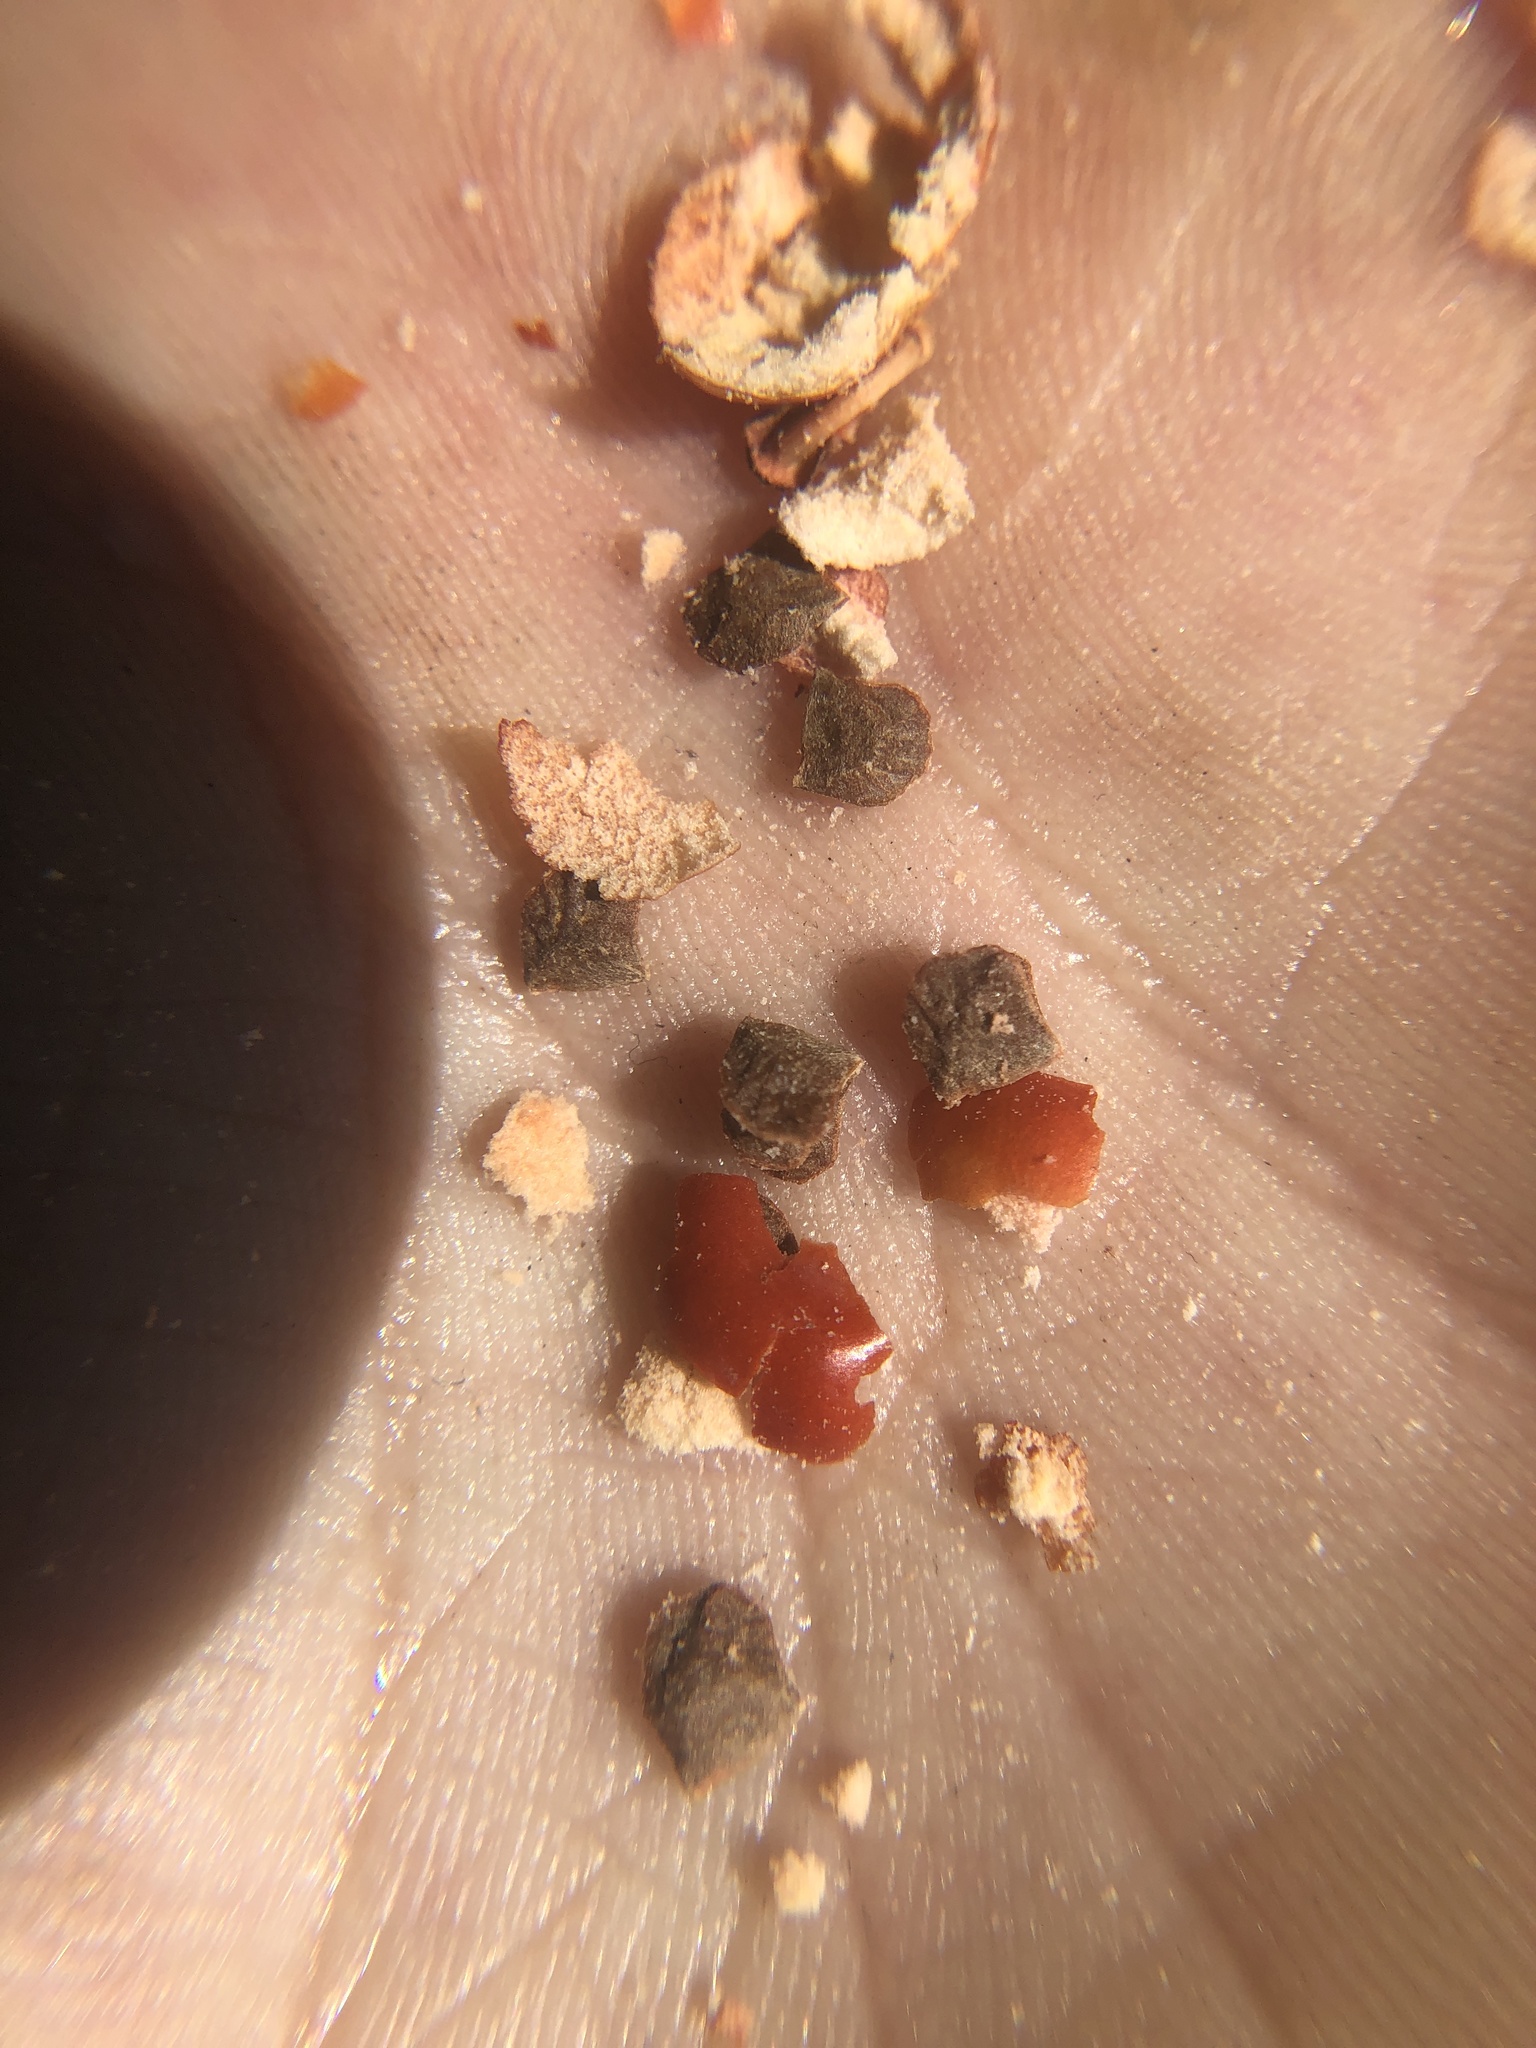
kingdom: Plantae
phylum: Tracheophyta
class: Magnoliopsida
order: Ericales
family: Ericaceae
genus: Arctostaphylos
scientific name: Arctostaphylos luciana
